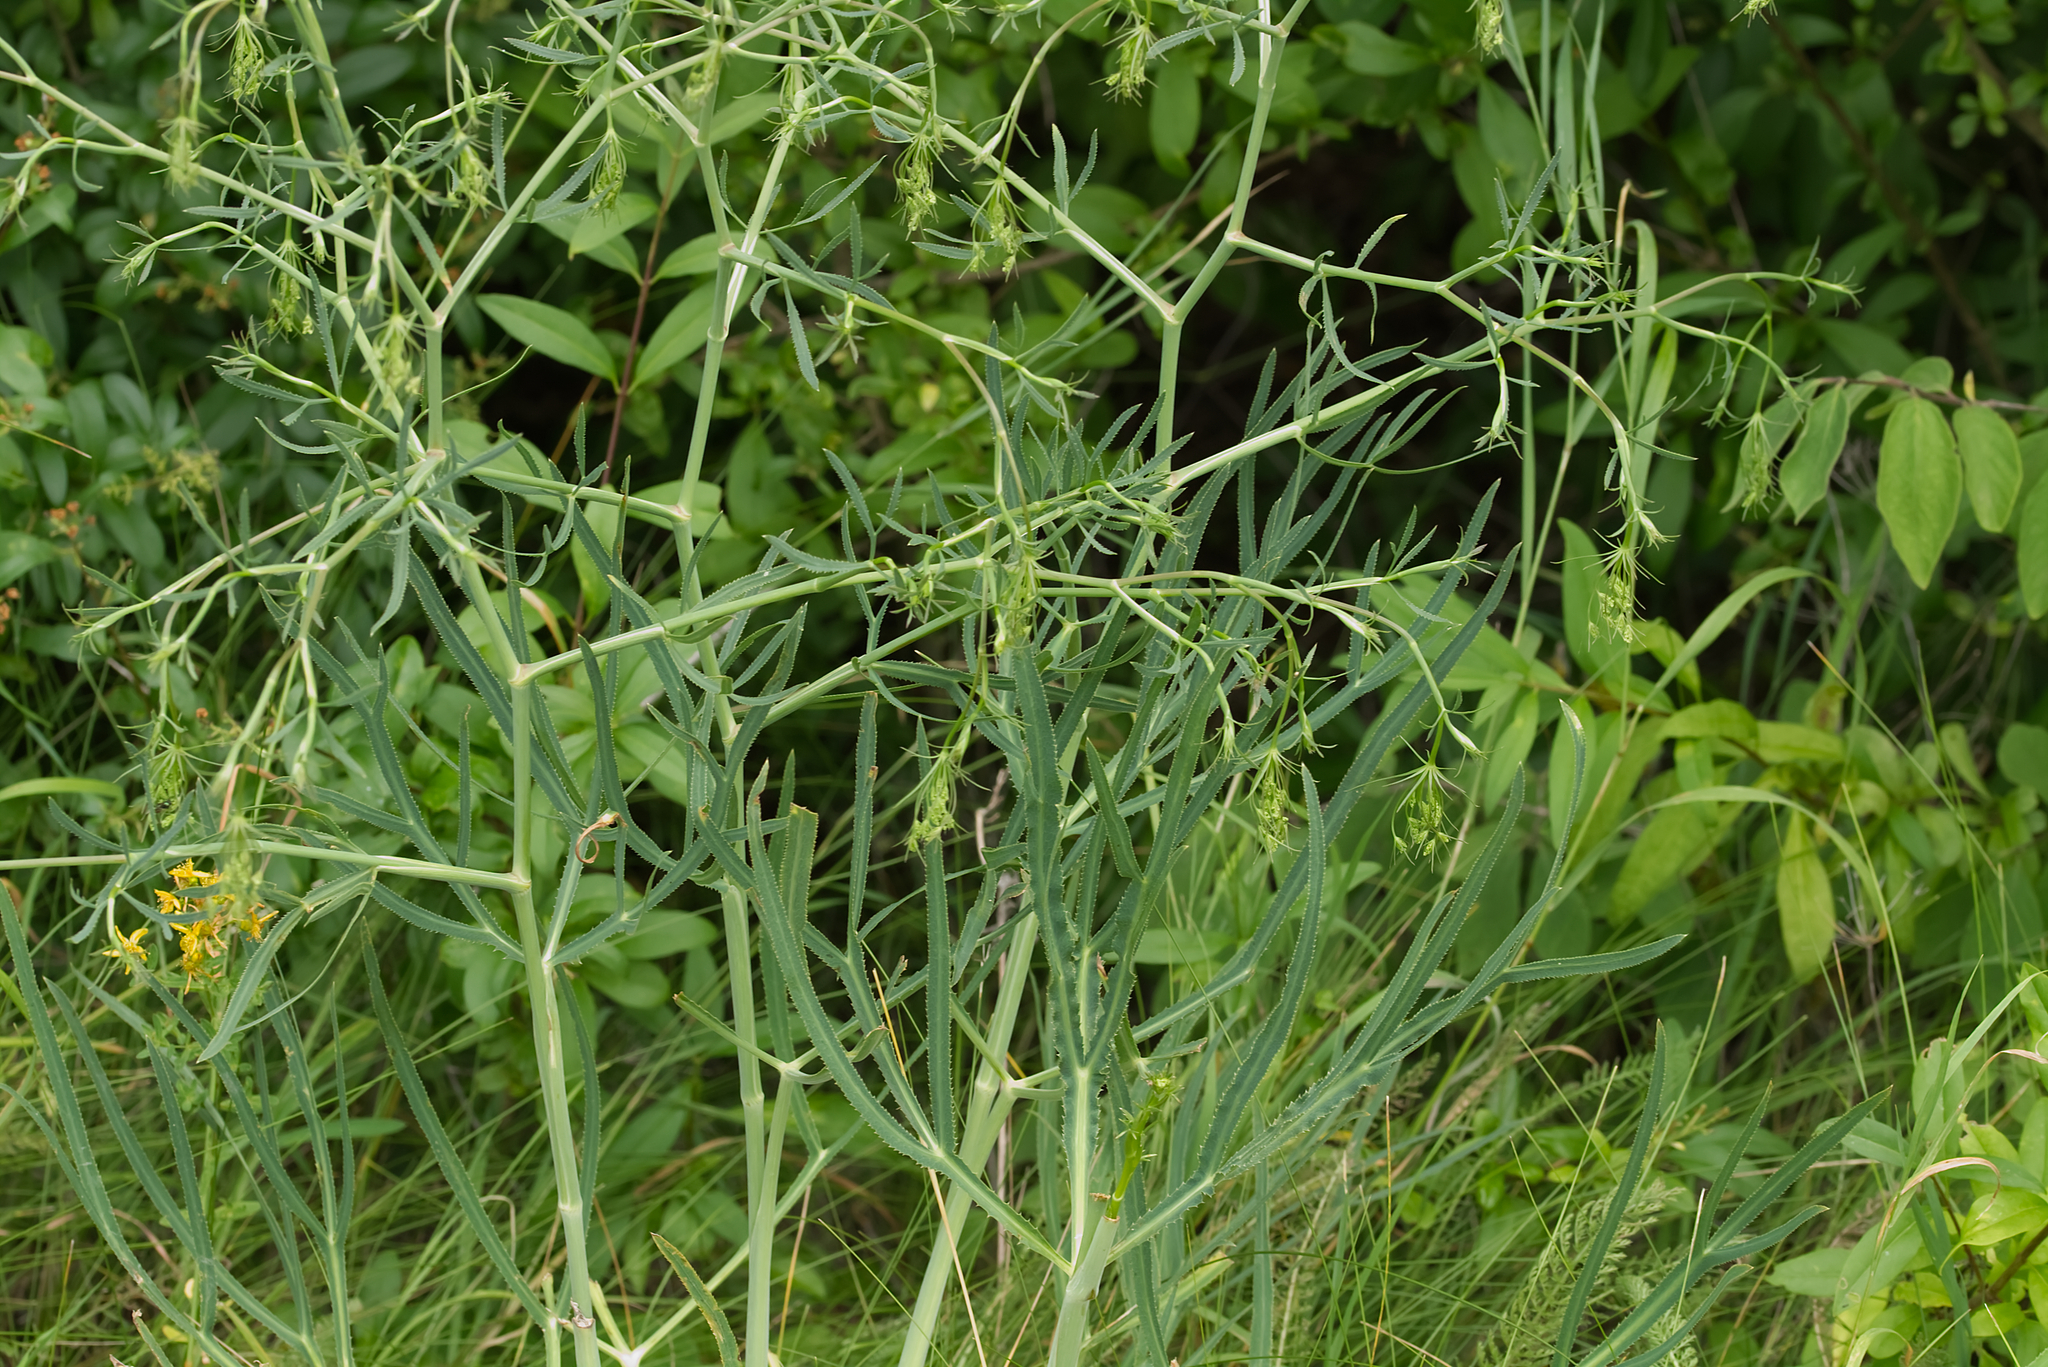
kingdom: Plantae
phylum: Tracheophyta
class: Magnoliopsida
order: Apiales
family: Apiaceae
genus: Falcaria
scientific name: Falcaria vulgaris
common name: Longleaf
